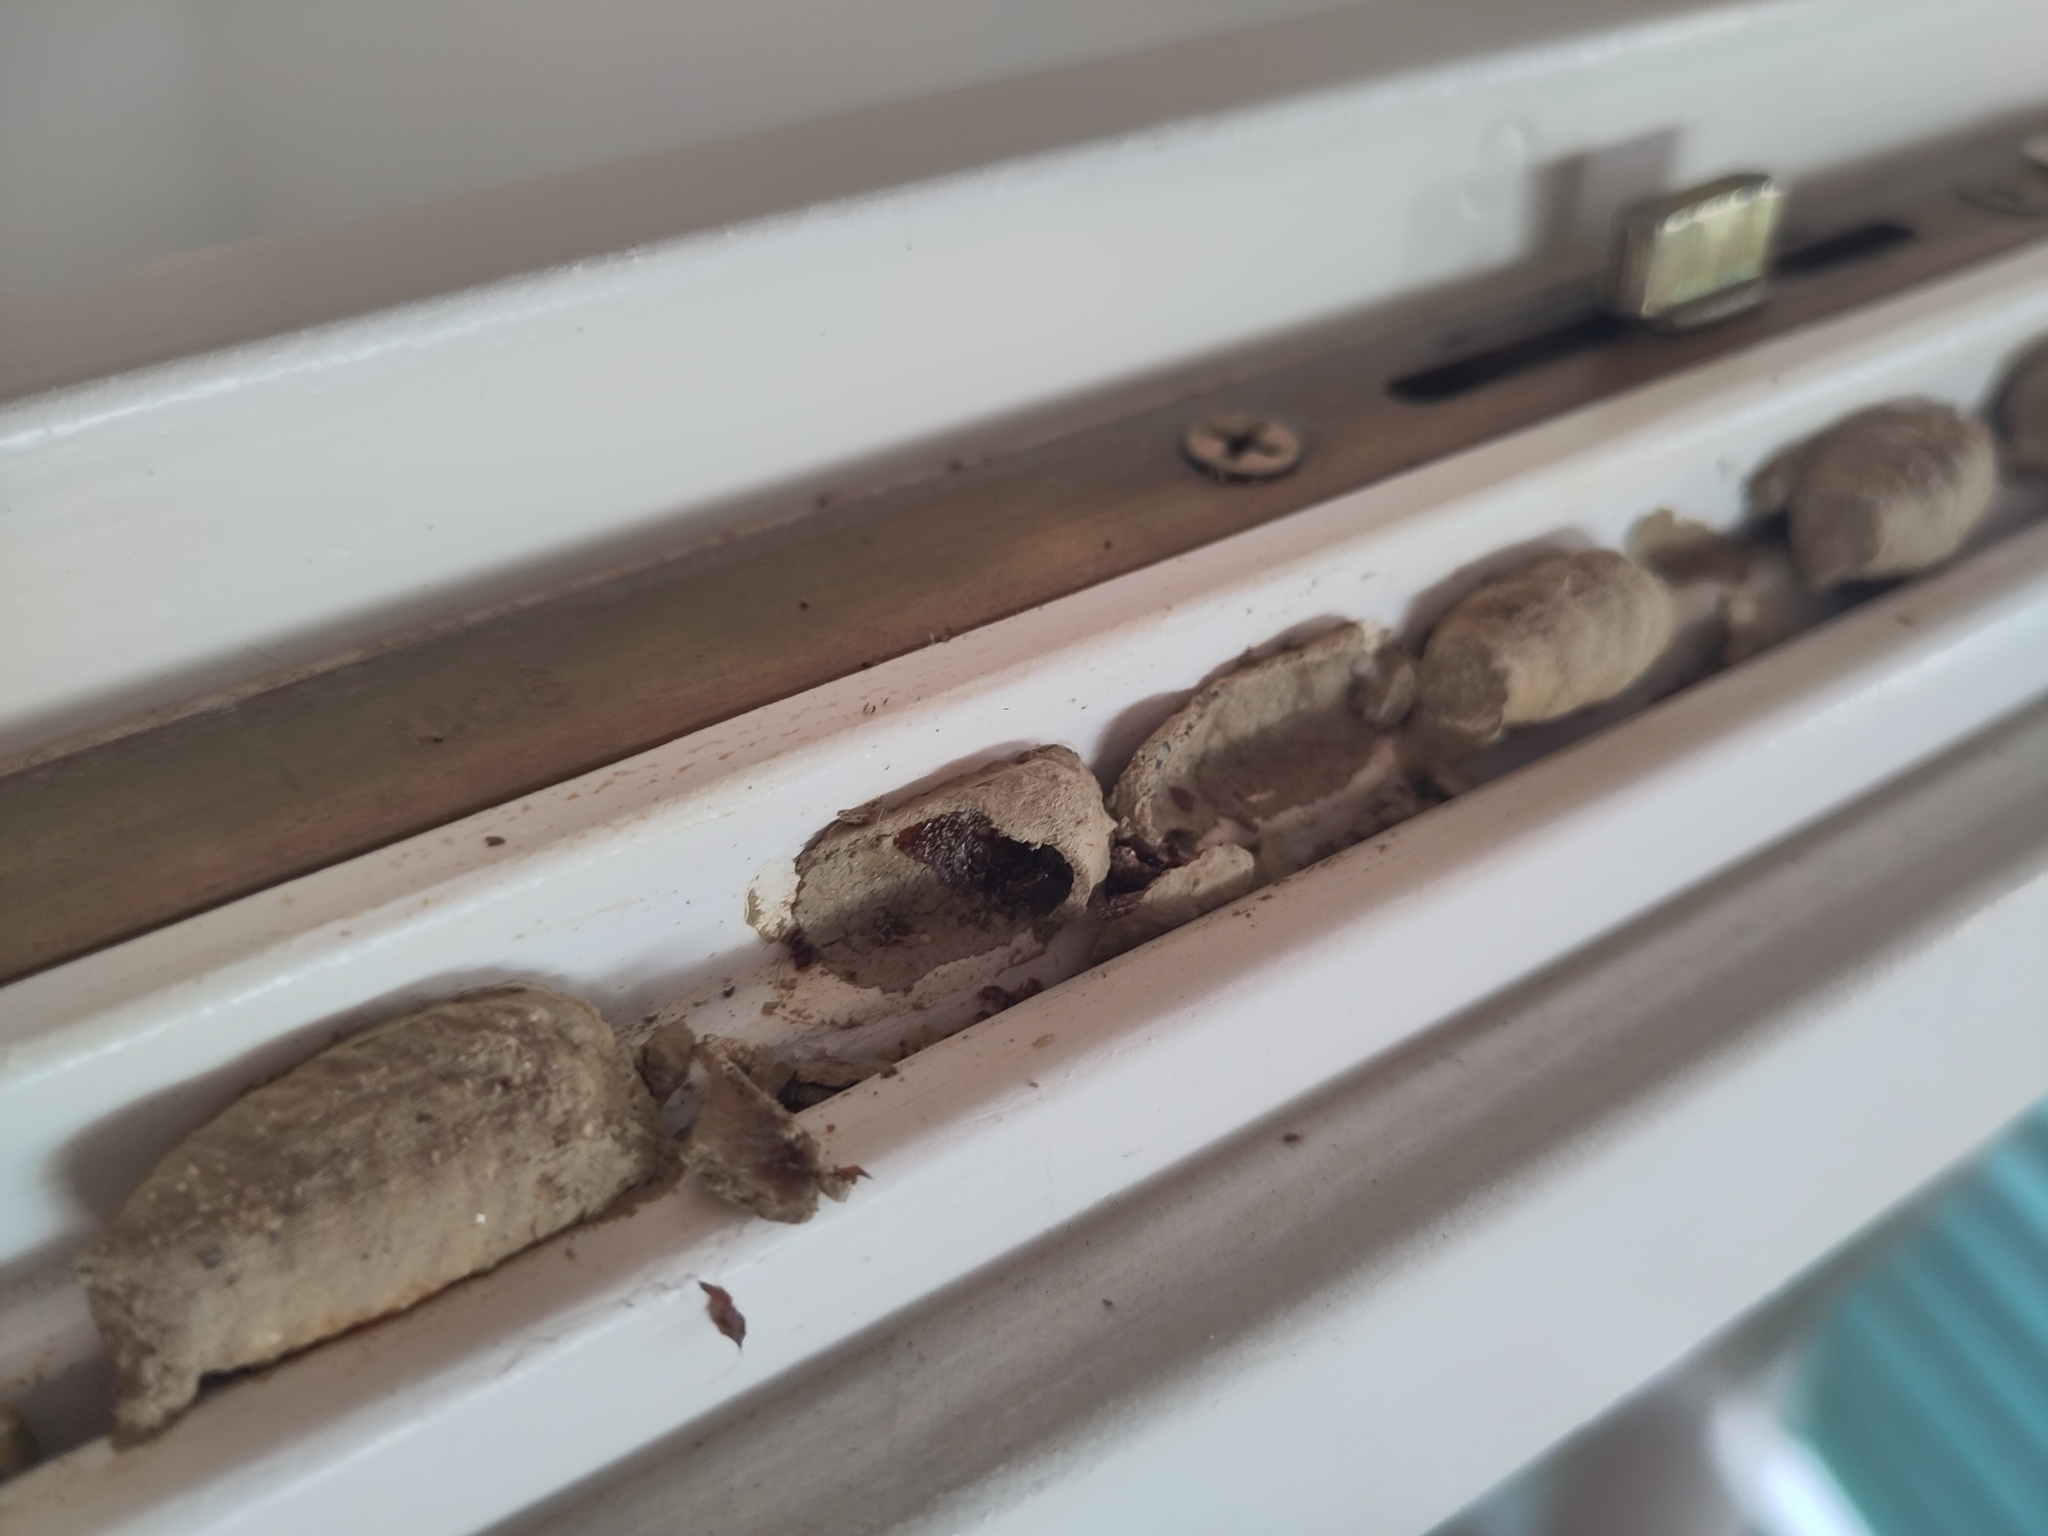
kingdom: Animalia
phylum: Arthropoda
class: Insecta
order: Hymenoptera
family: Sphecidae
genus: Sceliphron
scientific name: Sceliphron curvatum
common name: Pèlopèe
